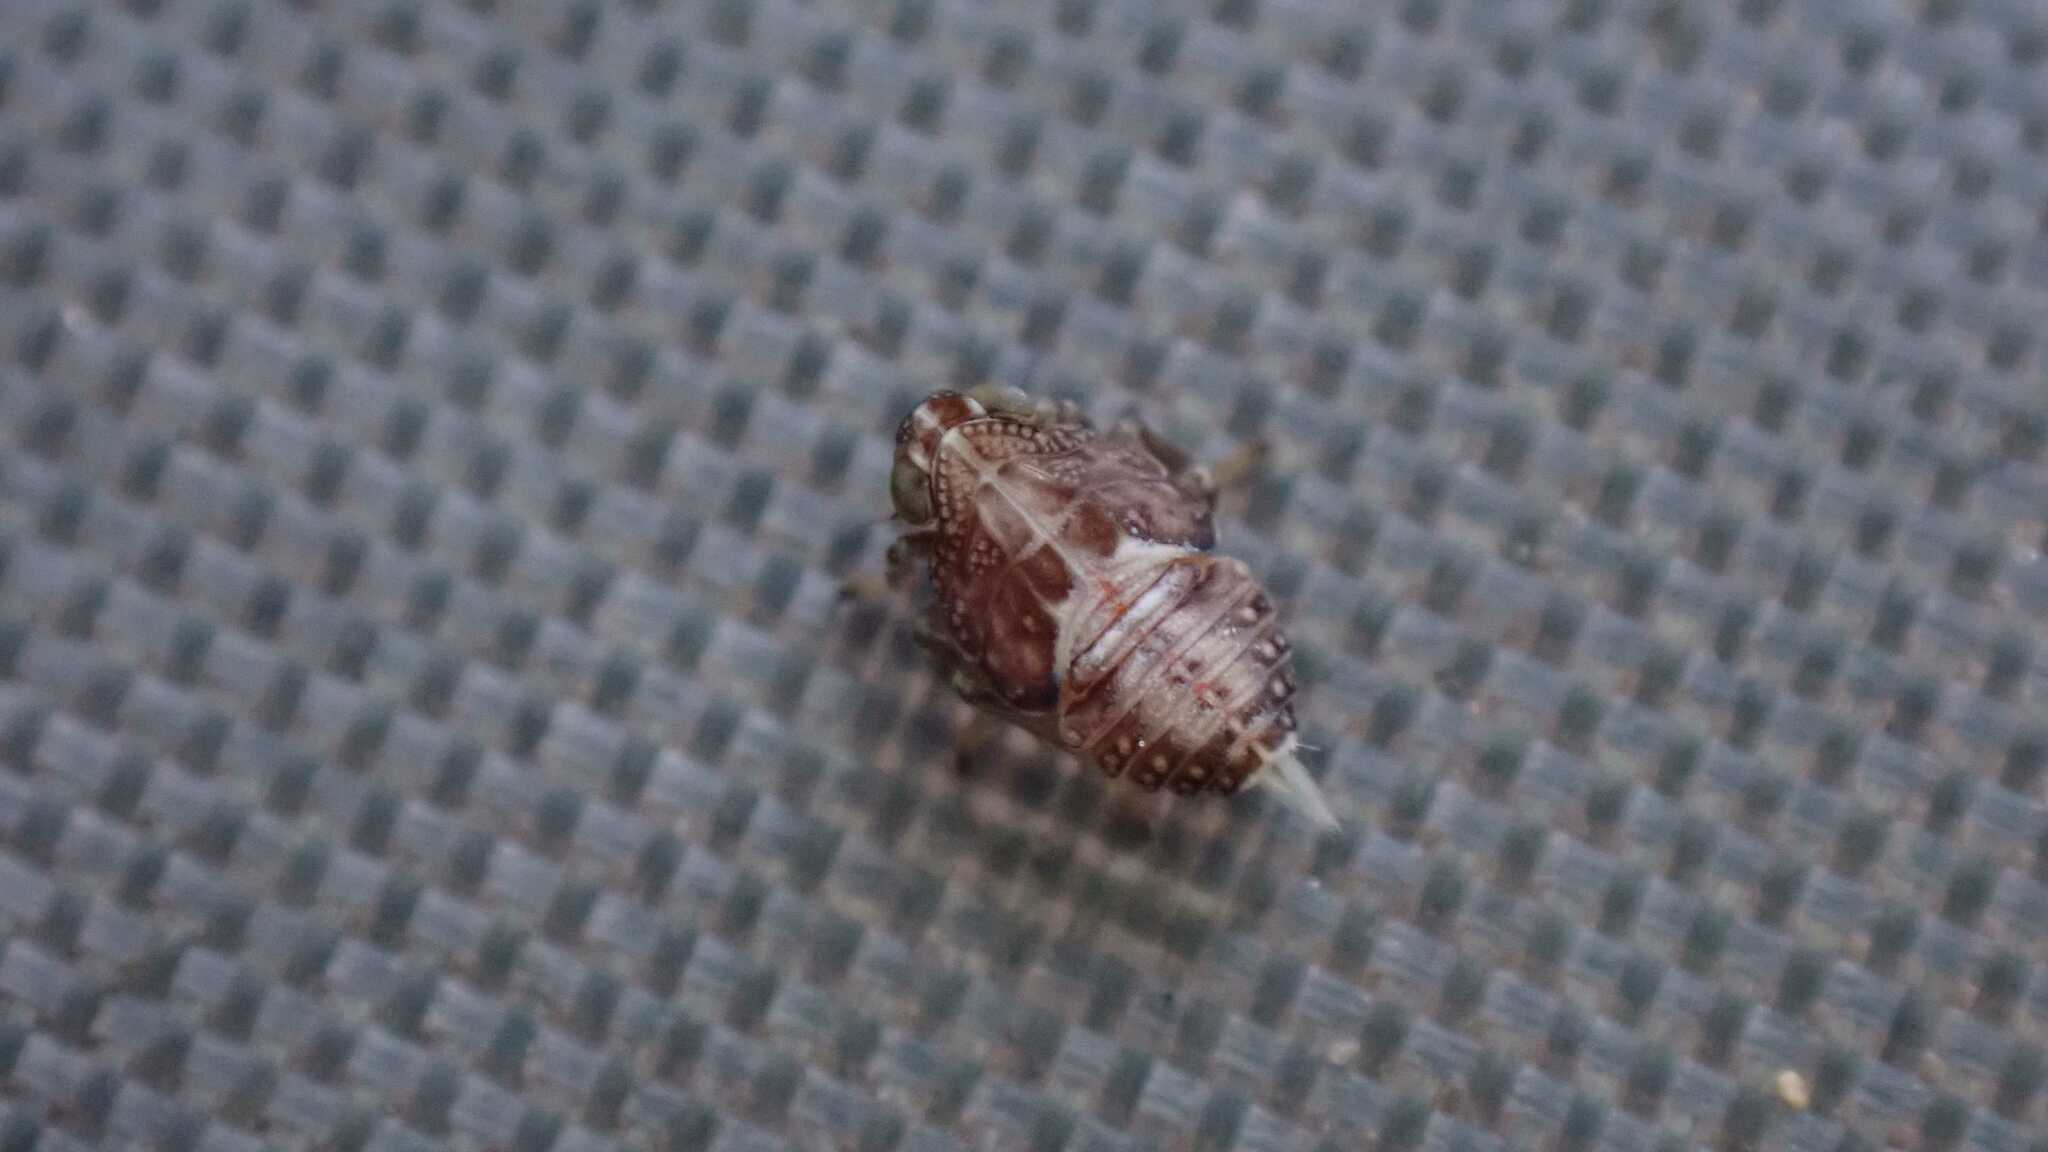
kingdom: Animalia
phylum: Arthropoda
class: Insecta
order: Hemiptera
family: Issidae
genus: Issus
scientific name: Issus
